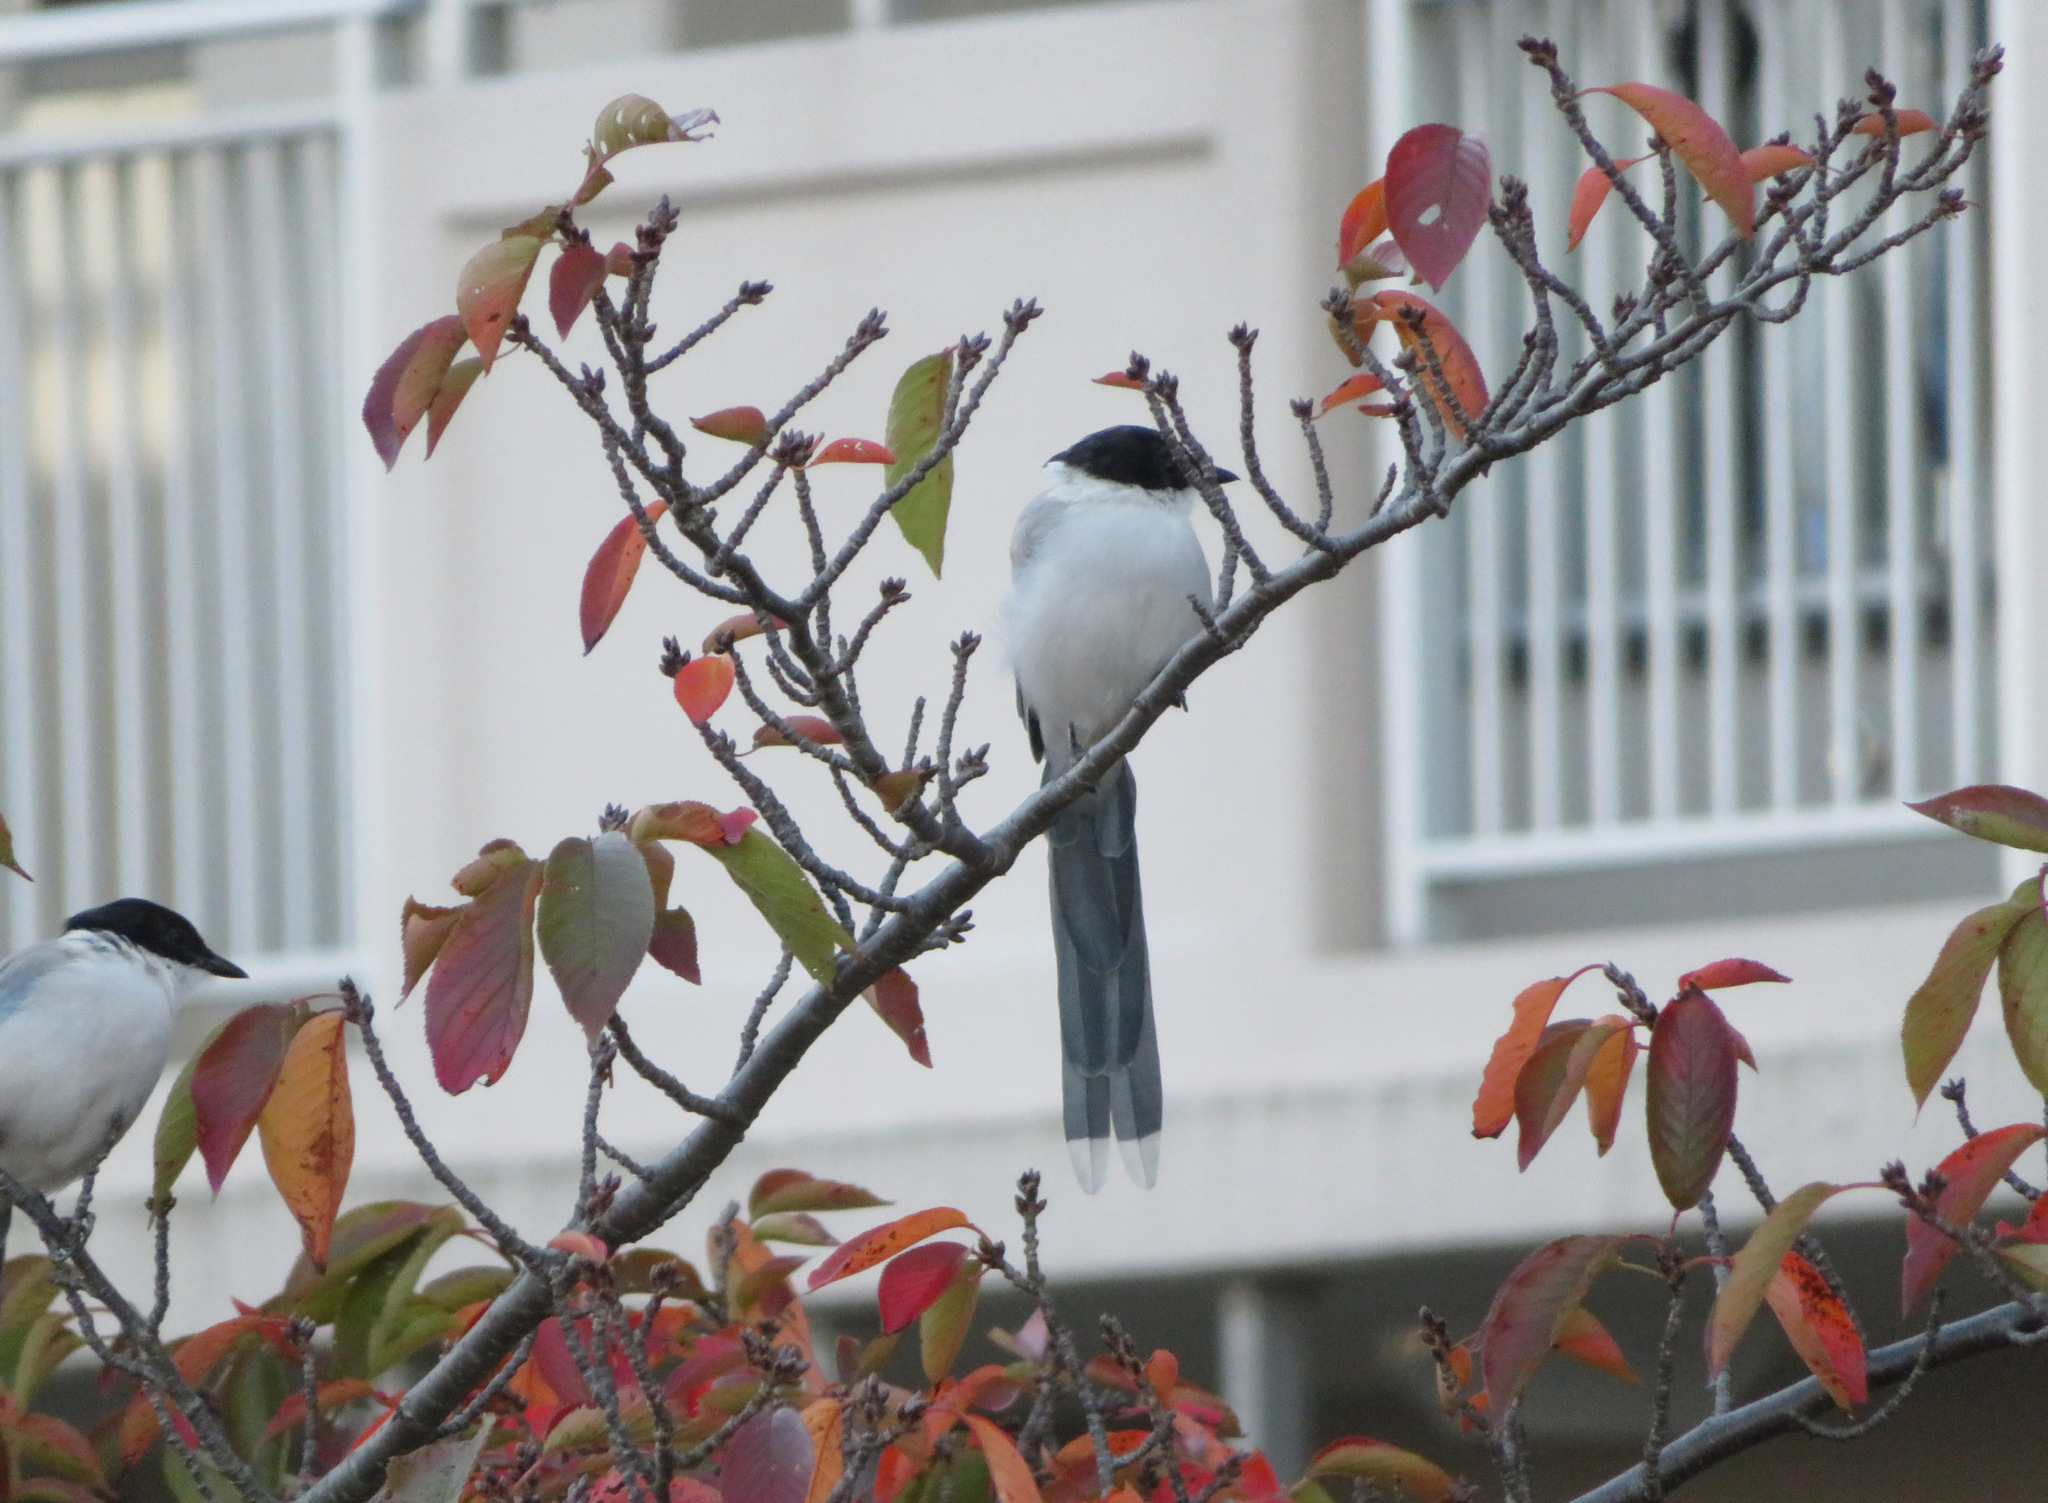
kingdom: Animalia
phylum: Chordata
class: Aves
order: Passeriformes
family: Corvidae
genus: Cyanopica
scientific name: Cyanopica cyanus
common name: Azure-winged magpie
